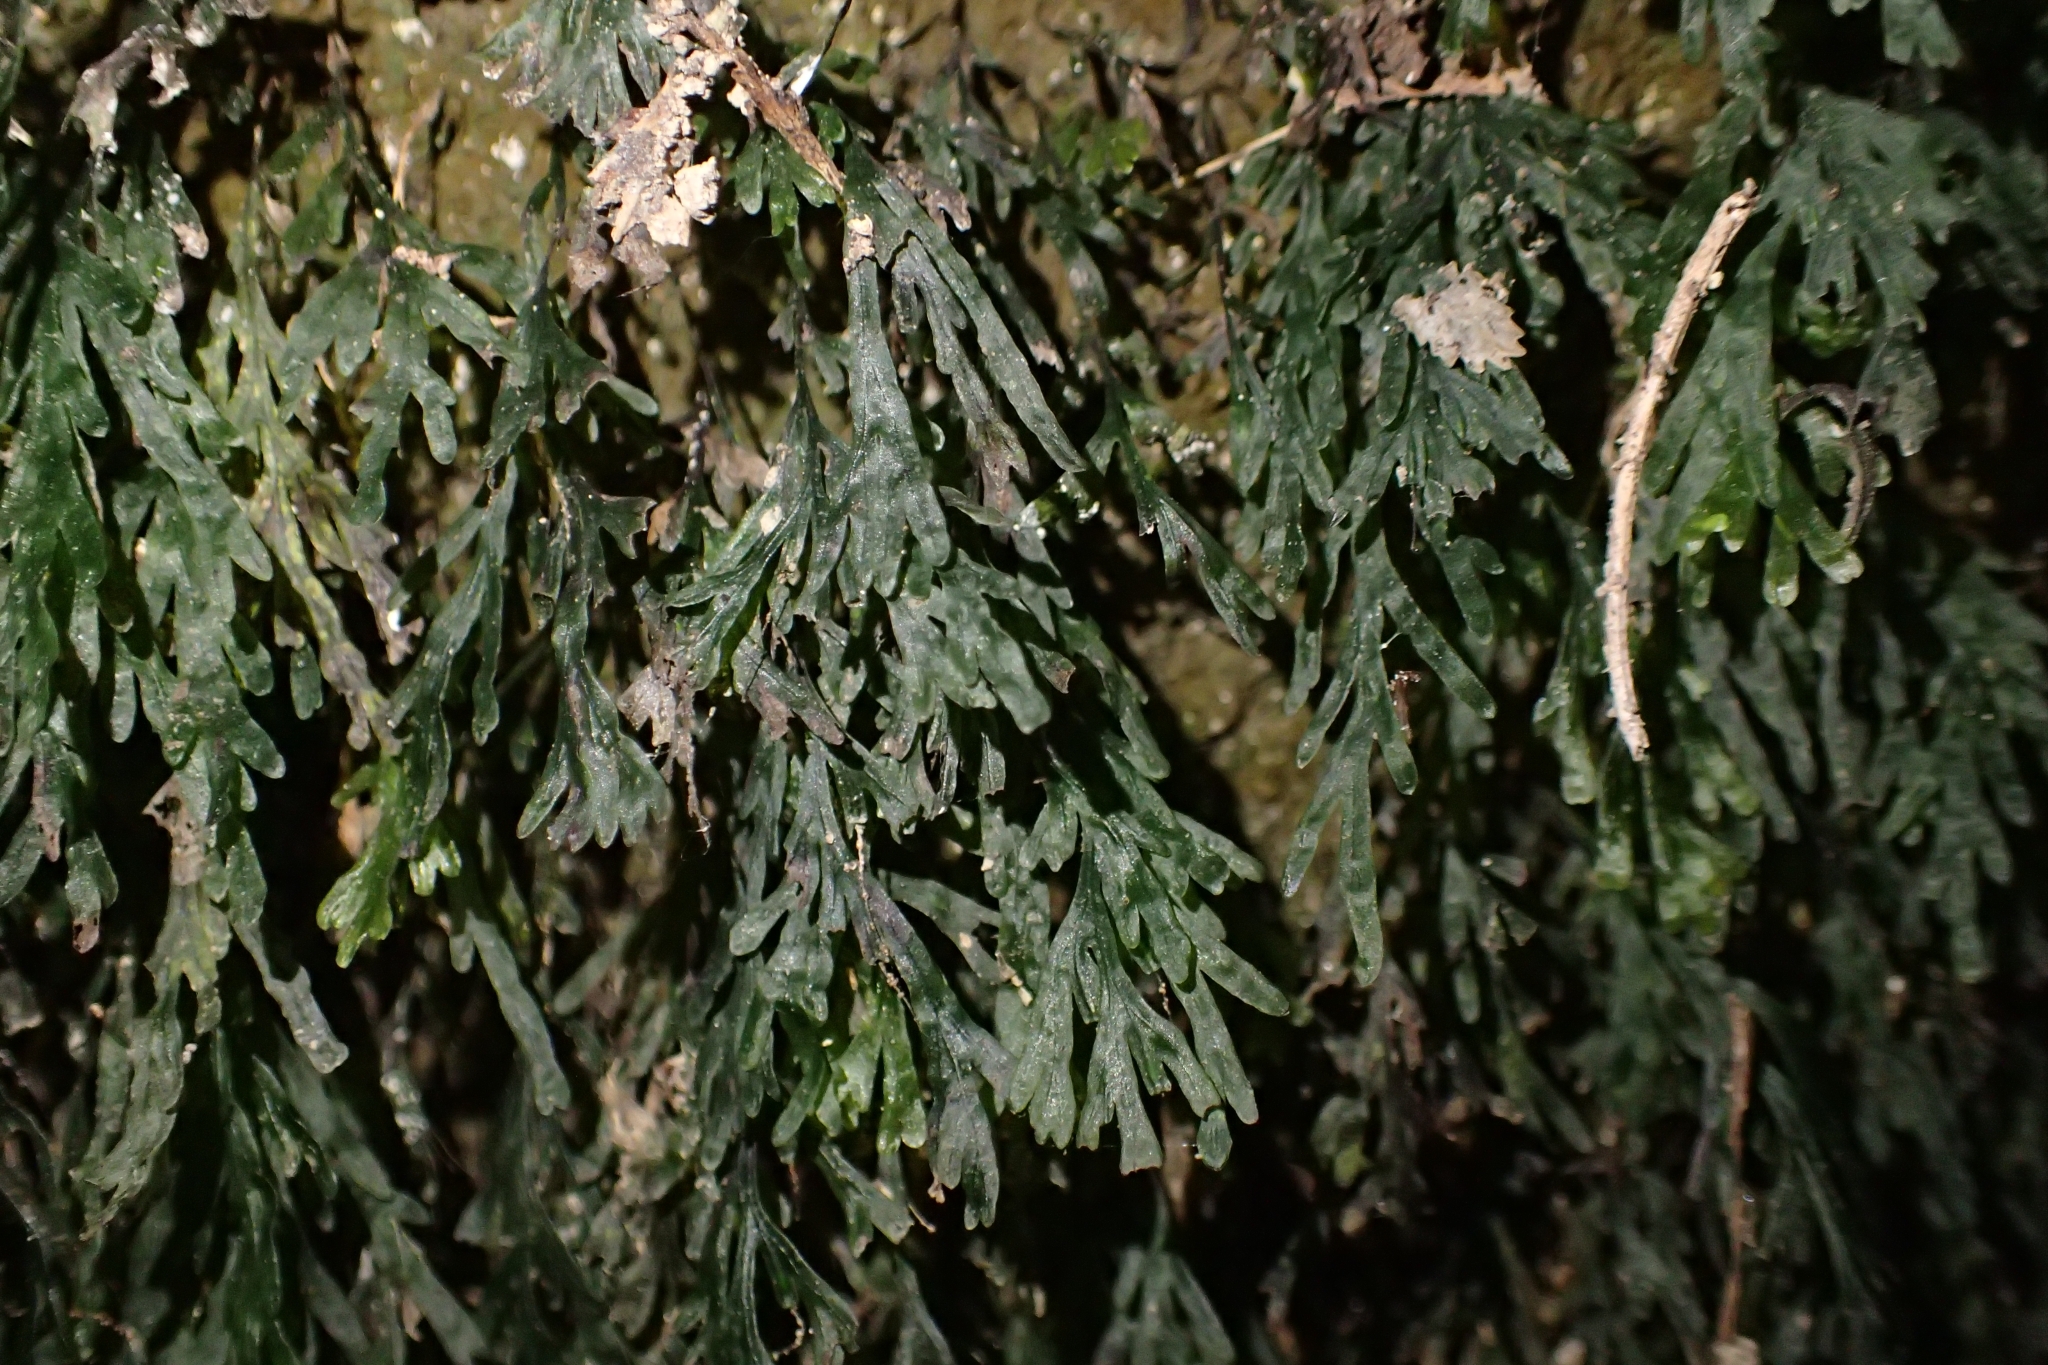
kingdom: Plantae
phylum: Tracheophyta
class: Polypodiopsida
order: Hymenophyllales
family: Hymenophyllaceae
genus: Polyphlebium
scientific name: Polyphlebium endlicherianum
